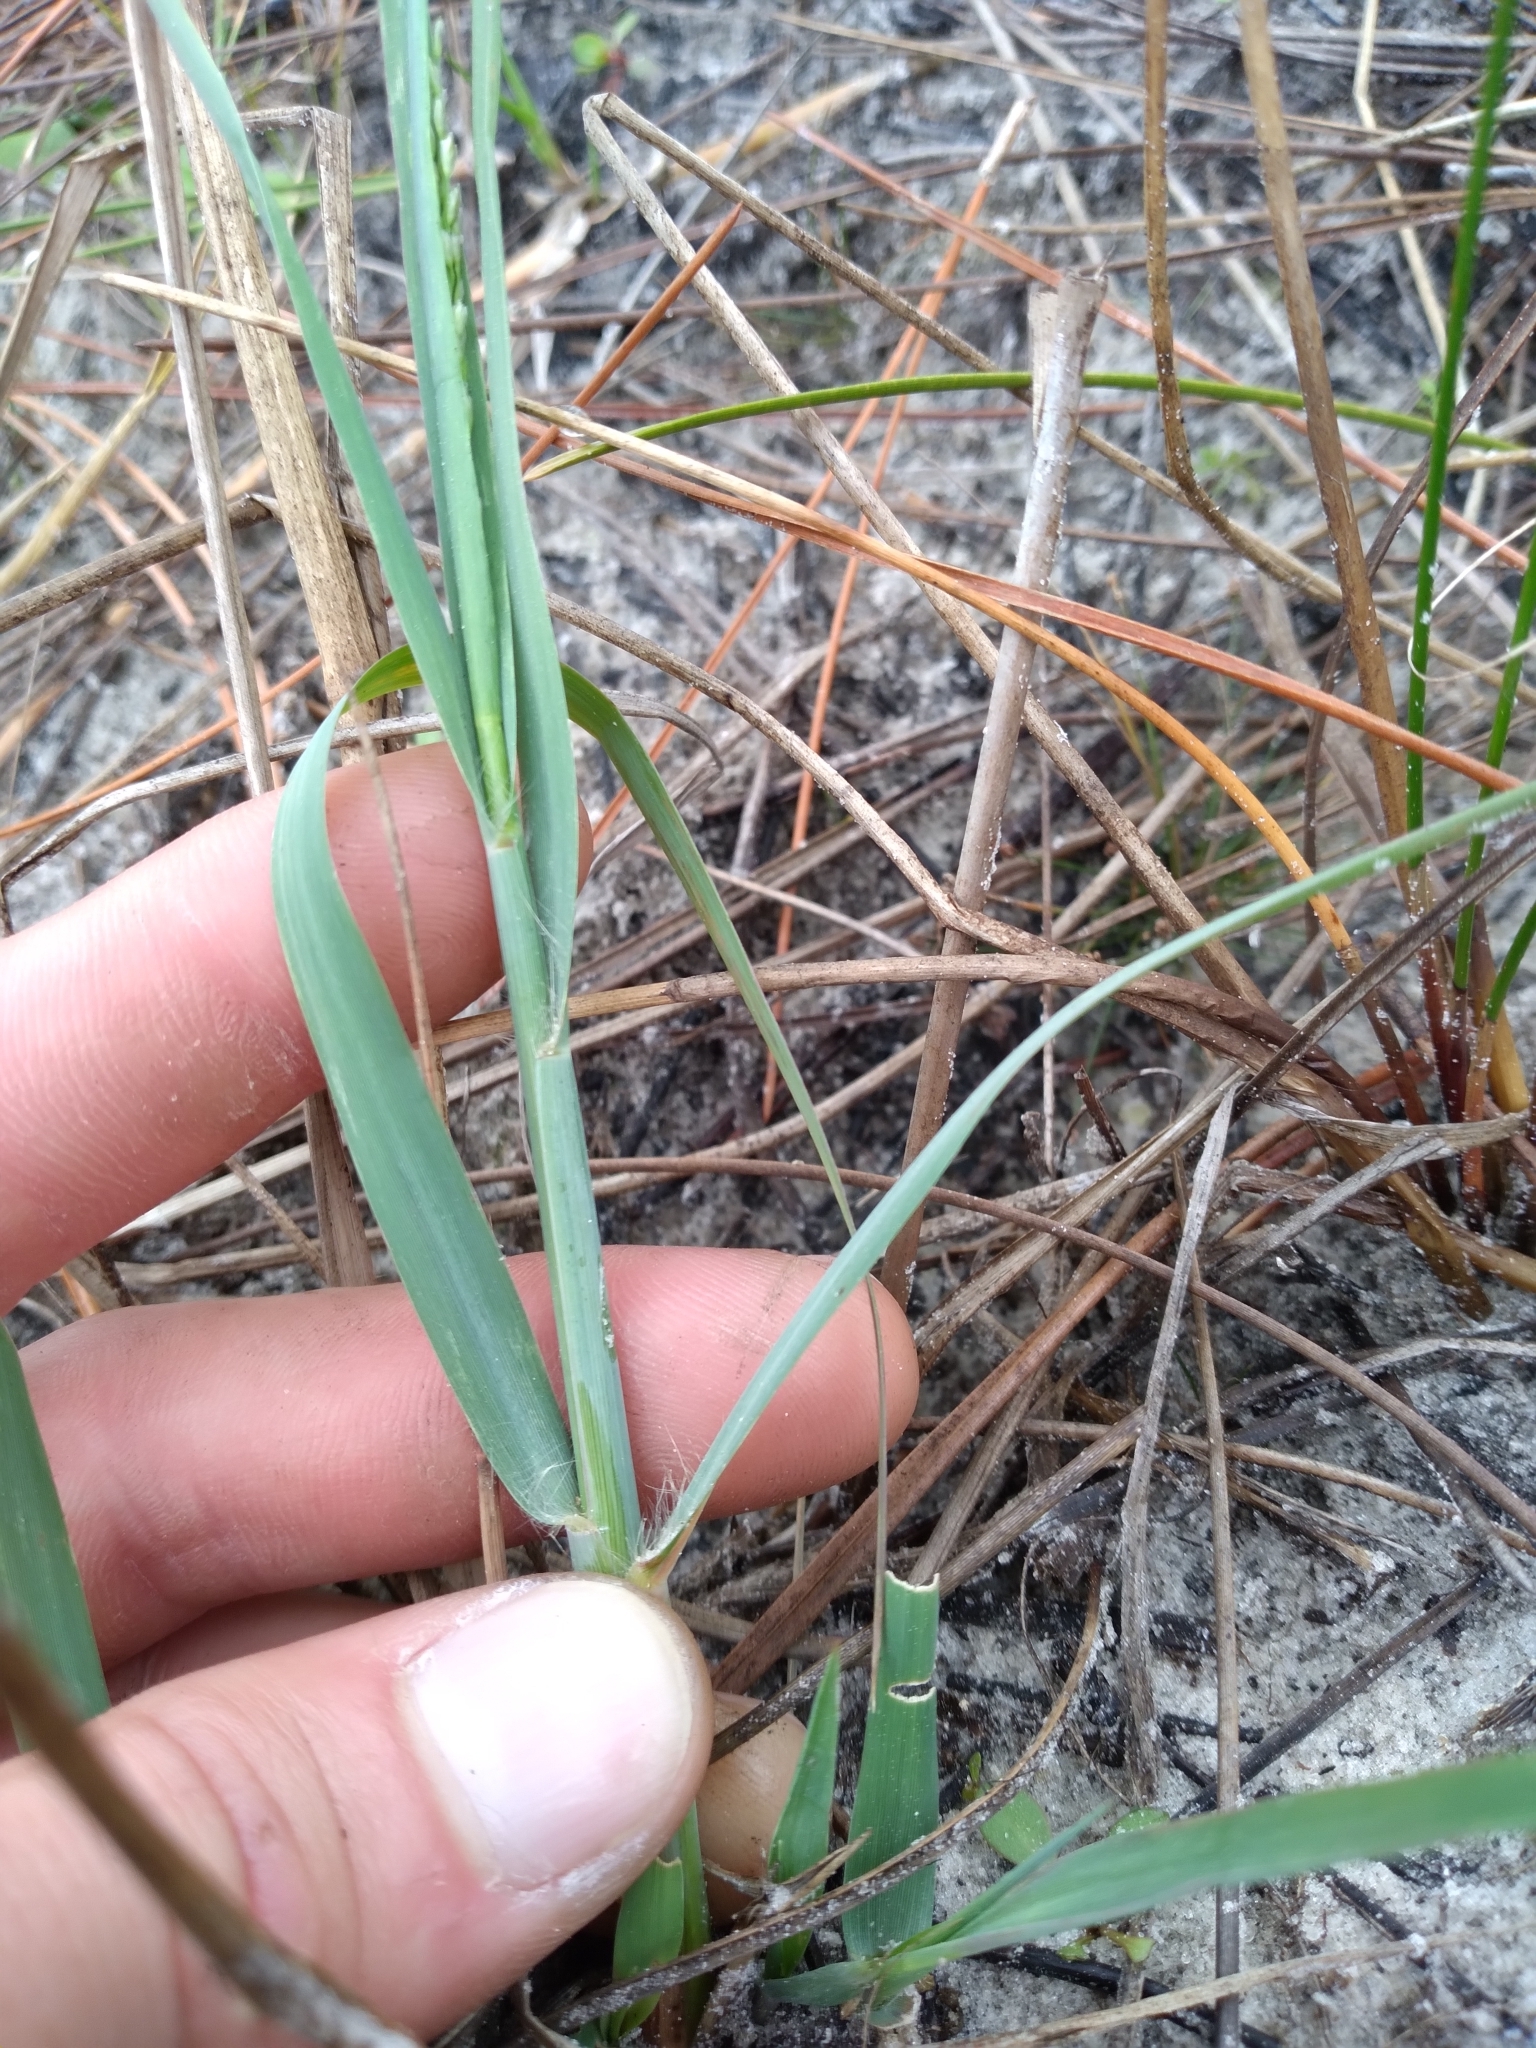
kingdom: Plantae
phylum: Tracheophyta
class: Liliopsida
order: Poales
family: Poaceae
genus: Eragrostis
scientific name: Eragrostis atrovirens
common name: Thalia lovegrass
